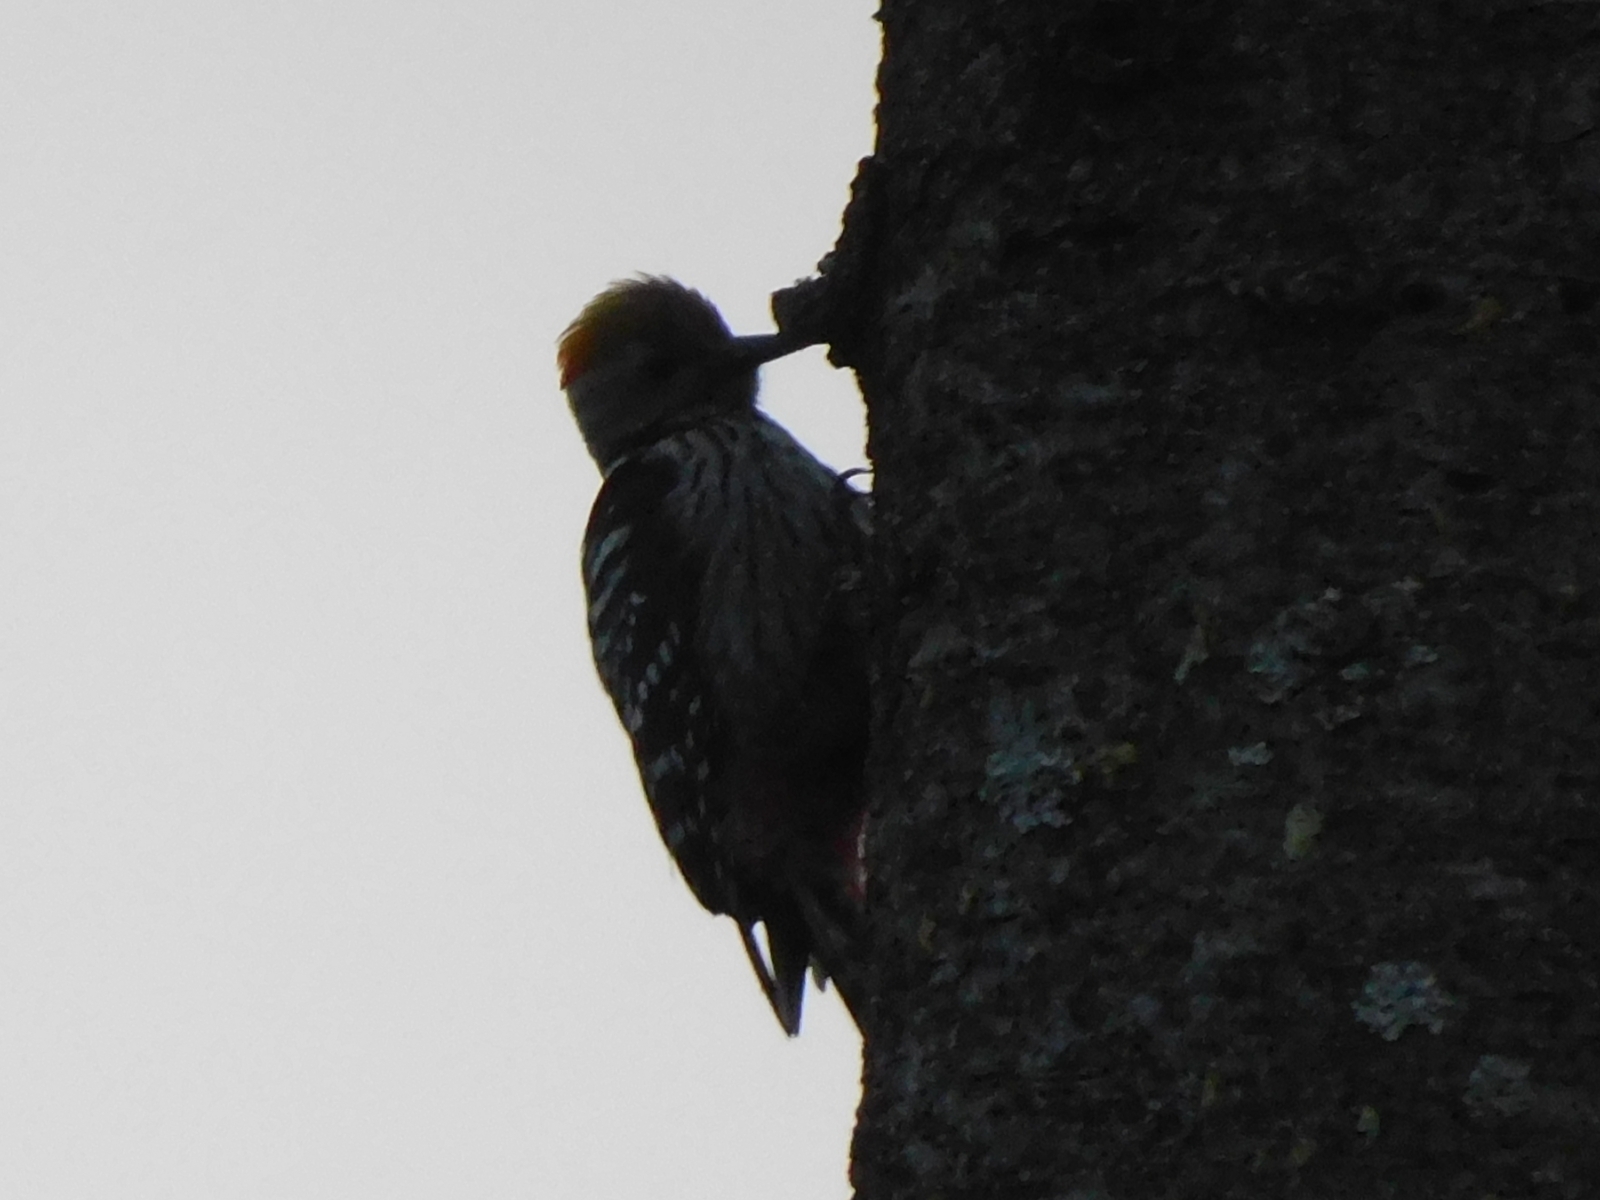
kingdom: Animalia
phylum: Chordata
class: Aves
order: Piciformes
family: Picidae
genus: Dendrocoptes
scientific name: Dendrocoptes auriceps
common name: Brown-fronted woodpecker
